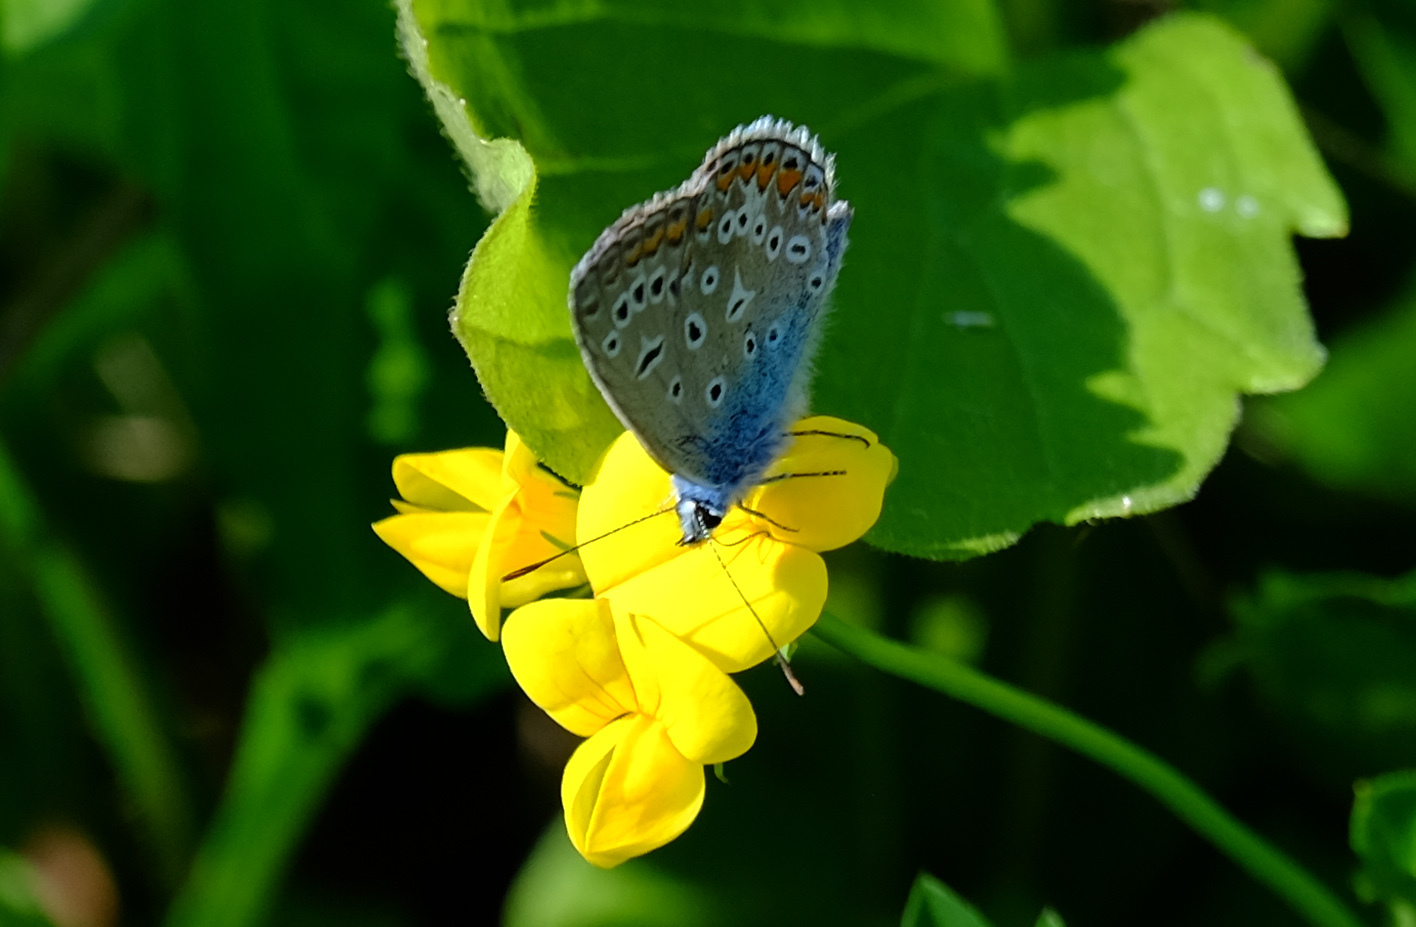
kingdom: Animalia
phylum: Arthropoda
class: Insecta
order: Lepidoptera
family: Lycaenidae
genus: Polyommatus
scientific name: Polyommatus icarus
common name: Common blue
